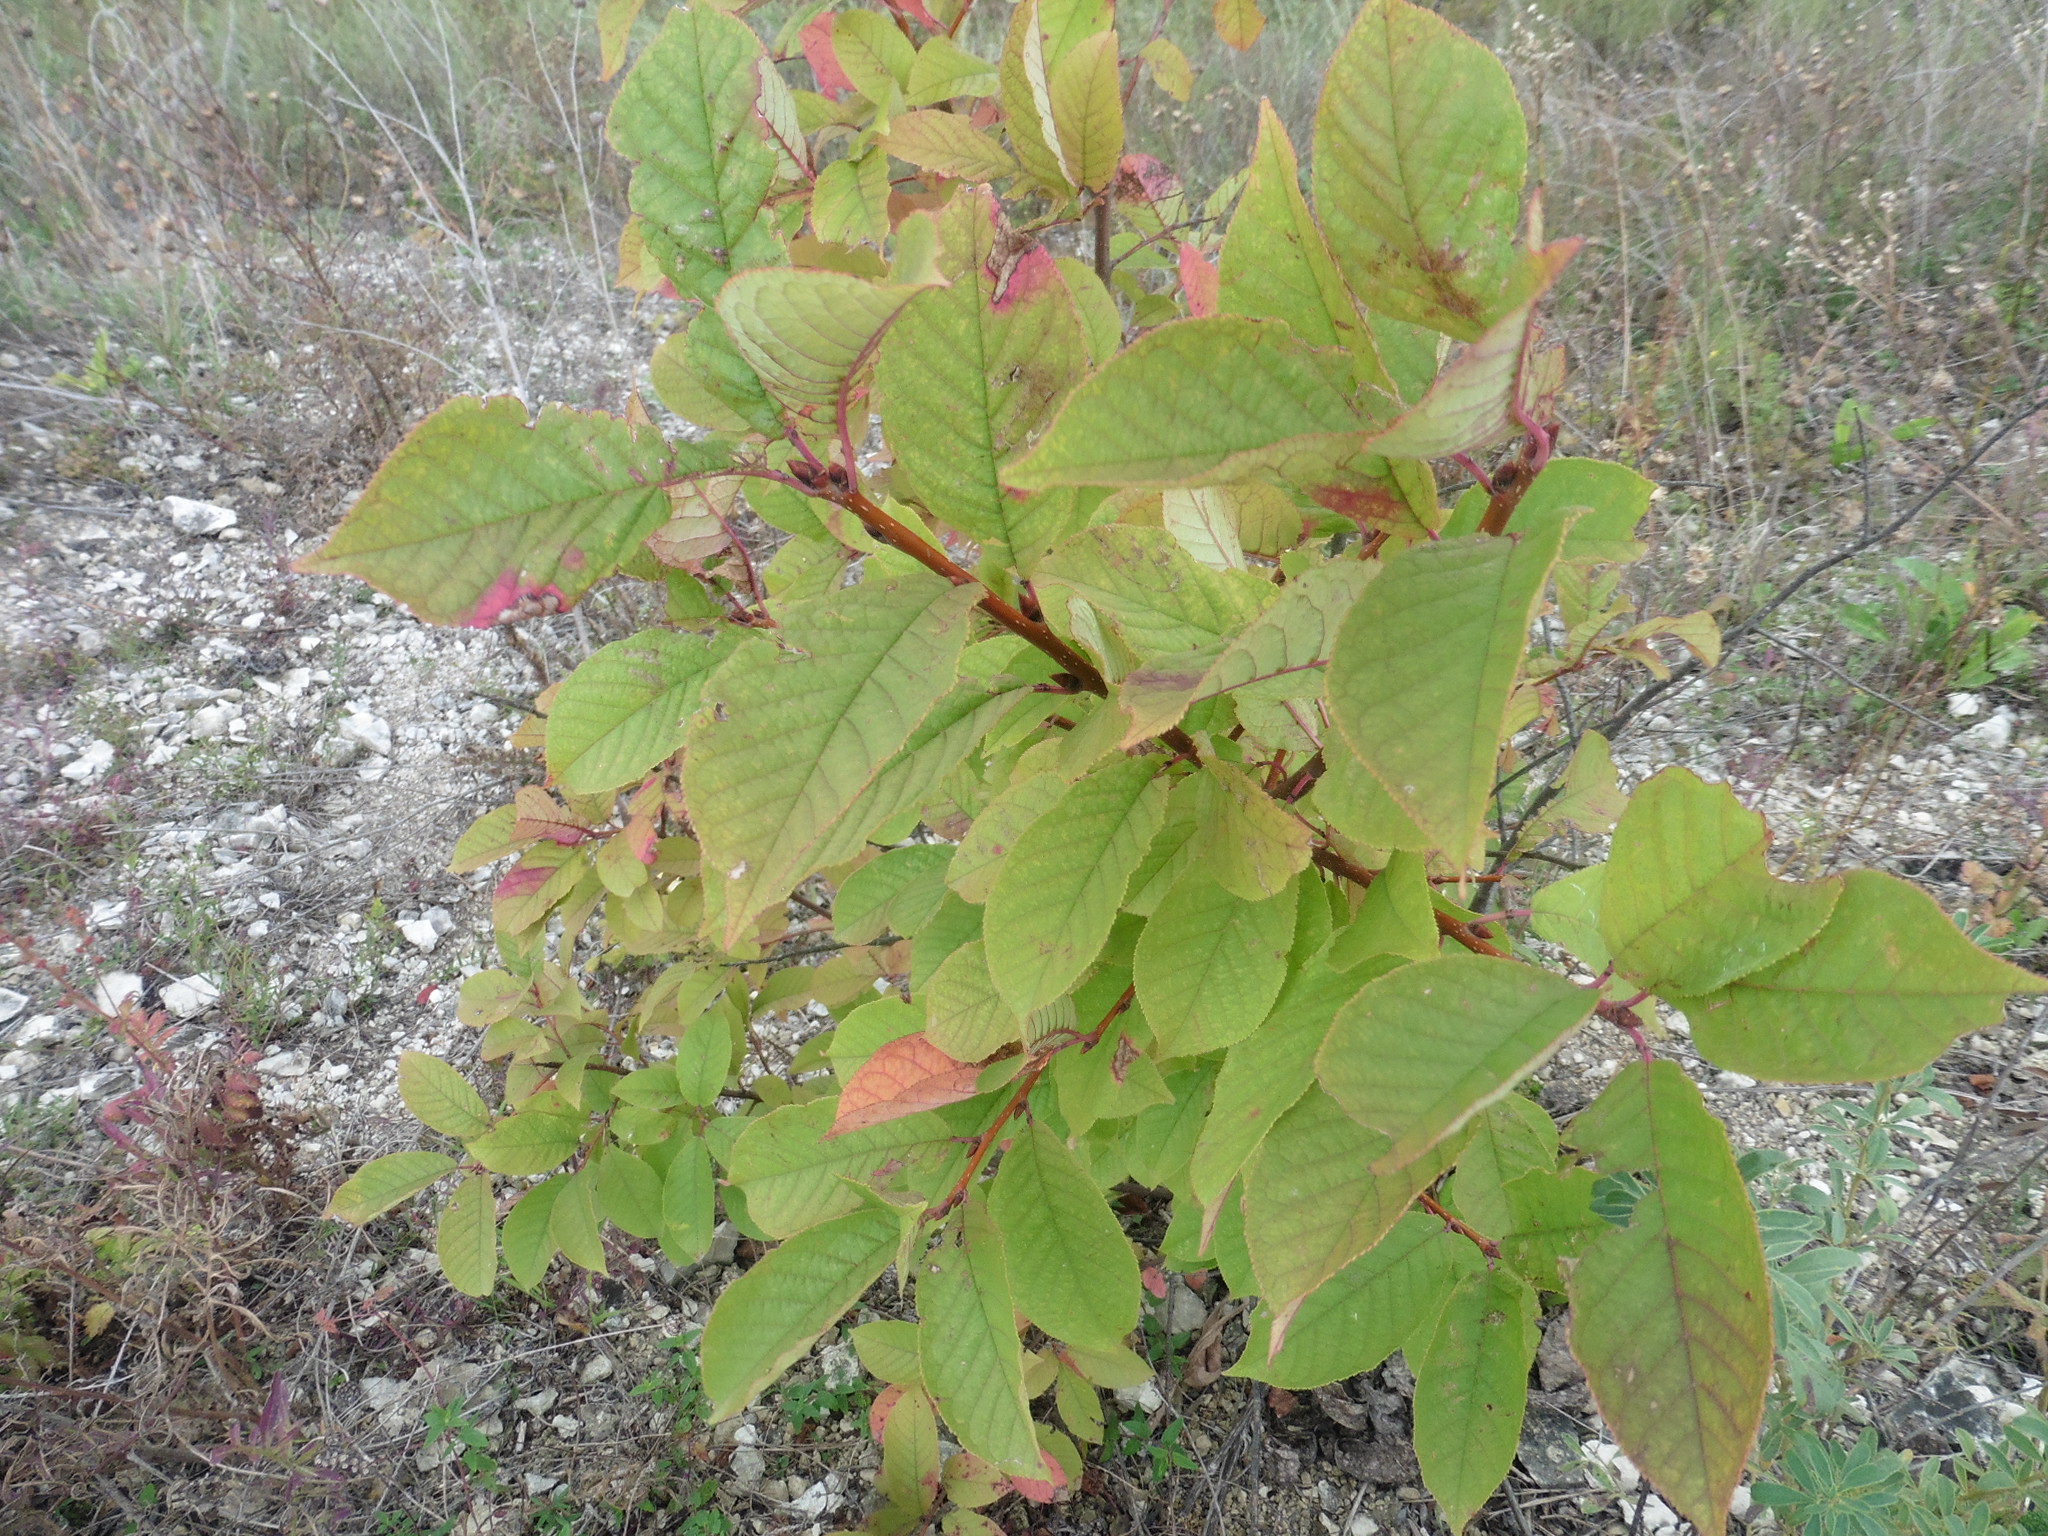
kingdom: Plantae
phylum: Tracheophyta
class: Magnoliopsida
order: Rosales
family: Rosaceae
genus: Prunus
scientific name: Prunus padus
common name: Bird cherry
